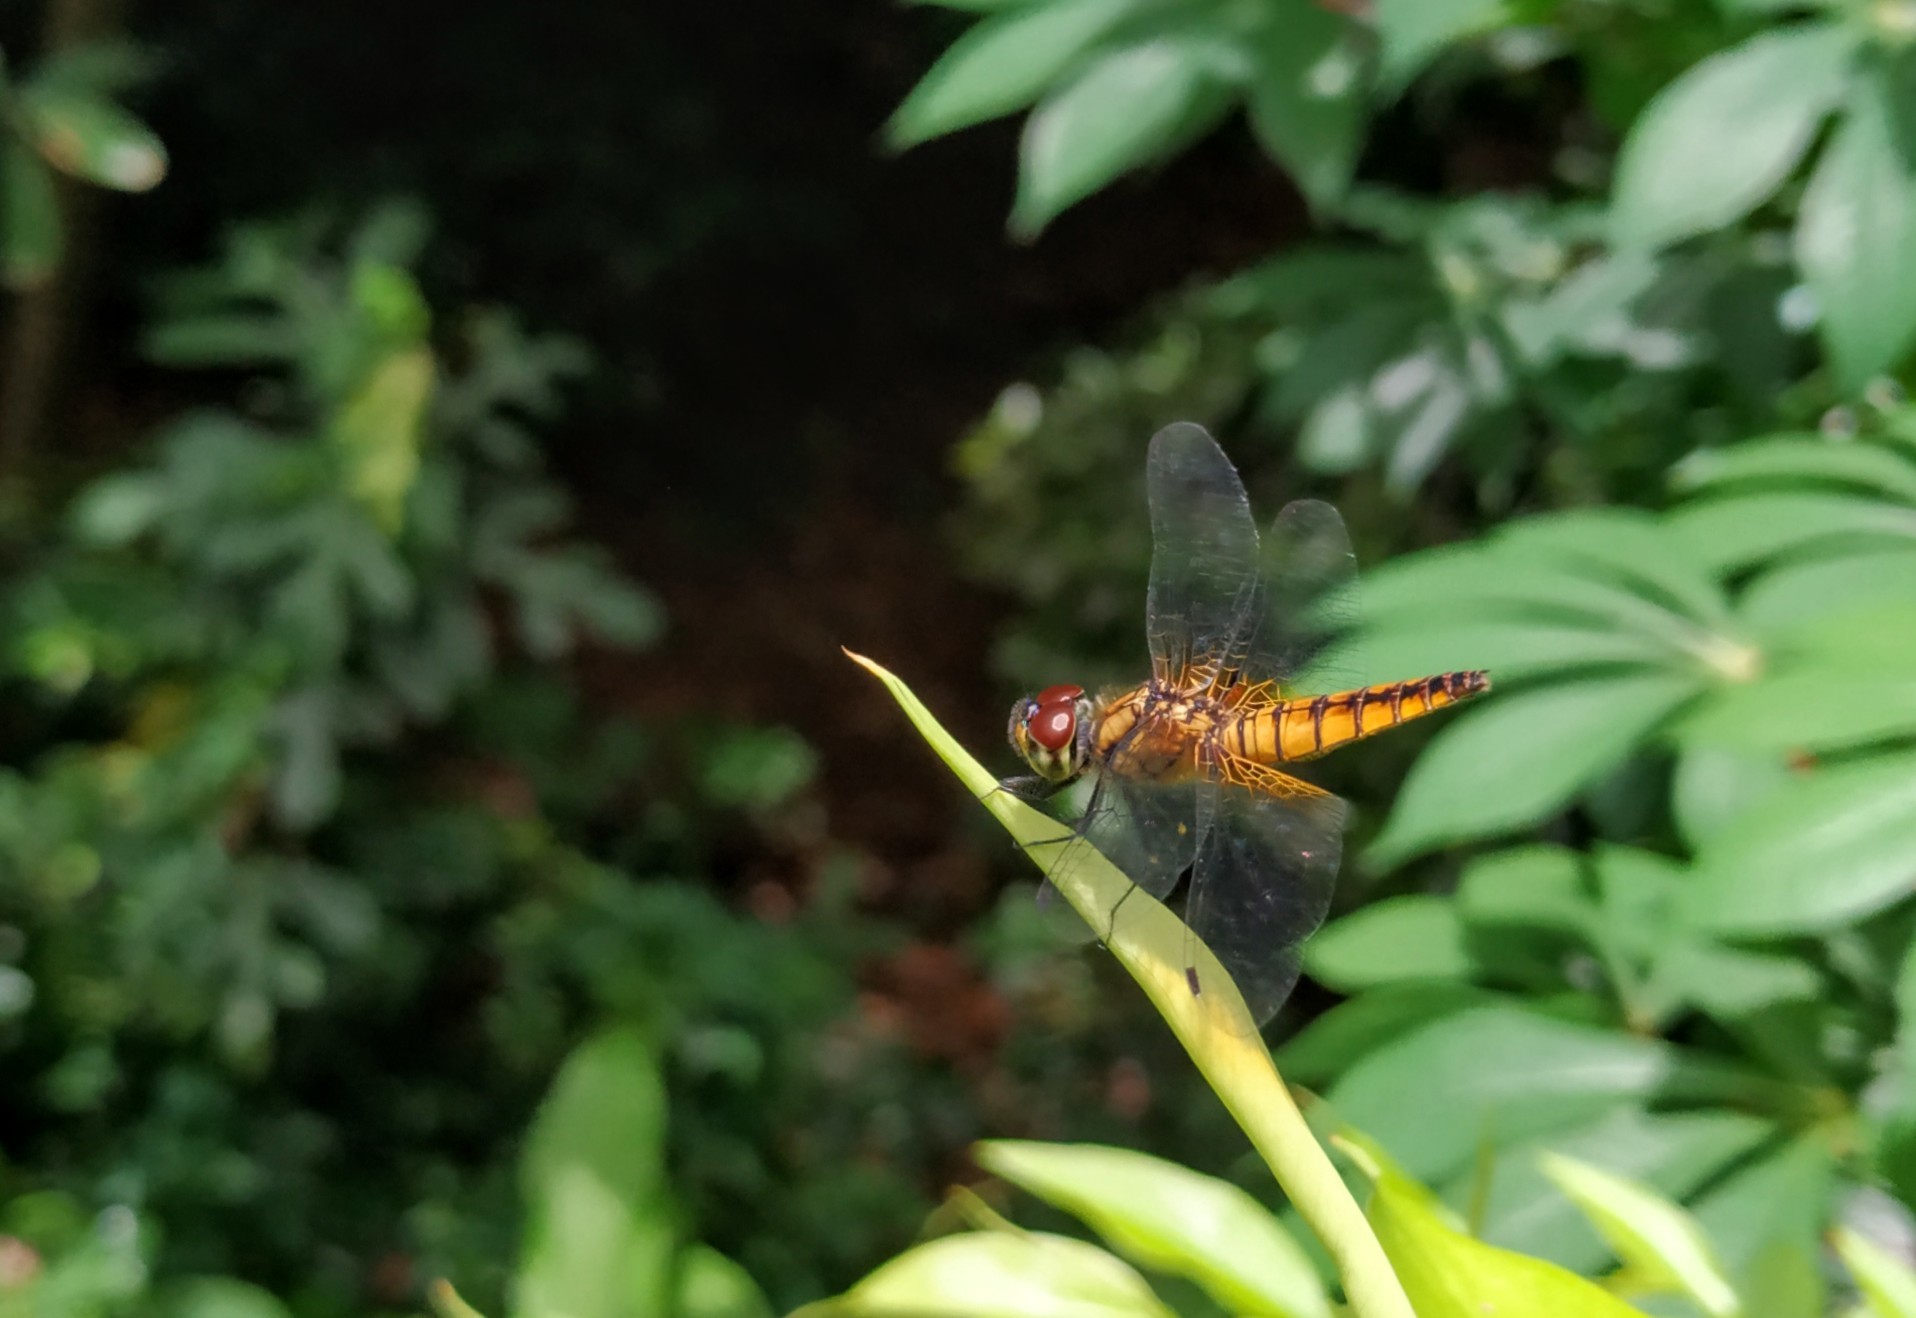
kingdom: Animalia
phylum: Arthropoda
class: Insecta
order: Odonata
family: Libellulidae
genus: Aethriamanta
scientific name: Aethriamanta brevipennis
